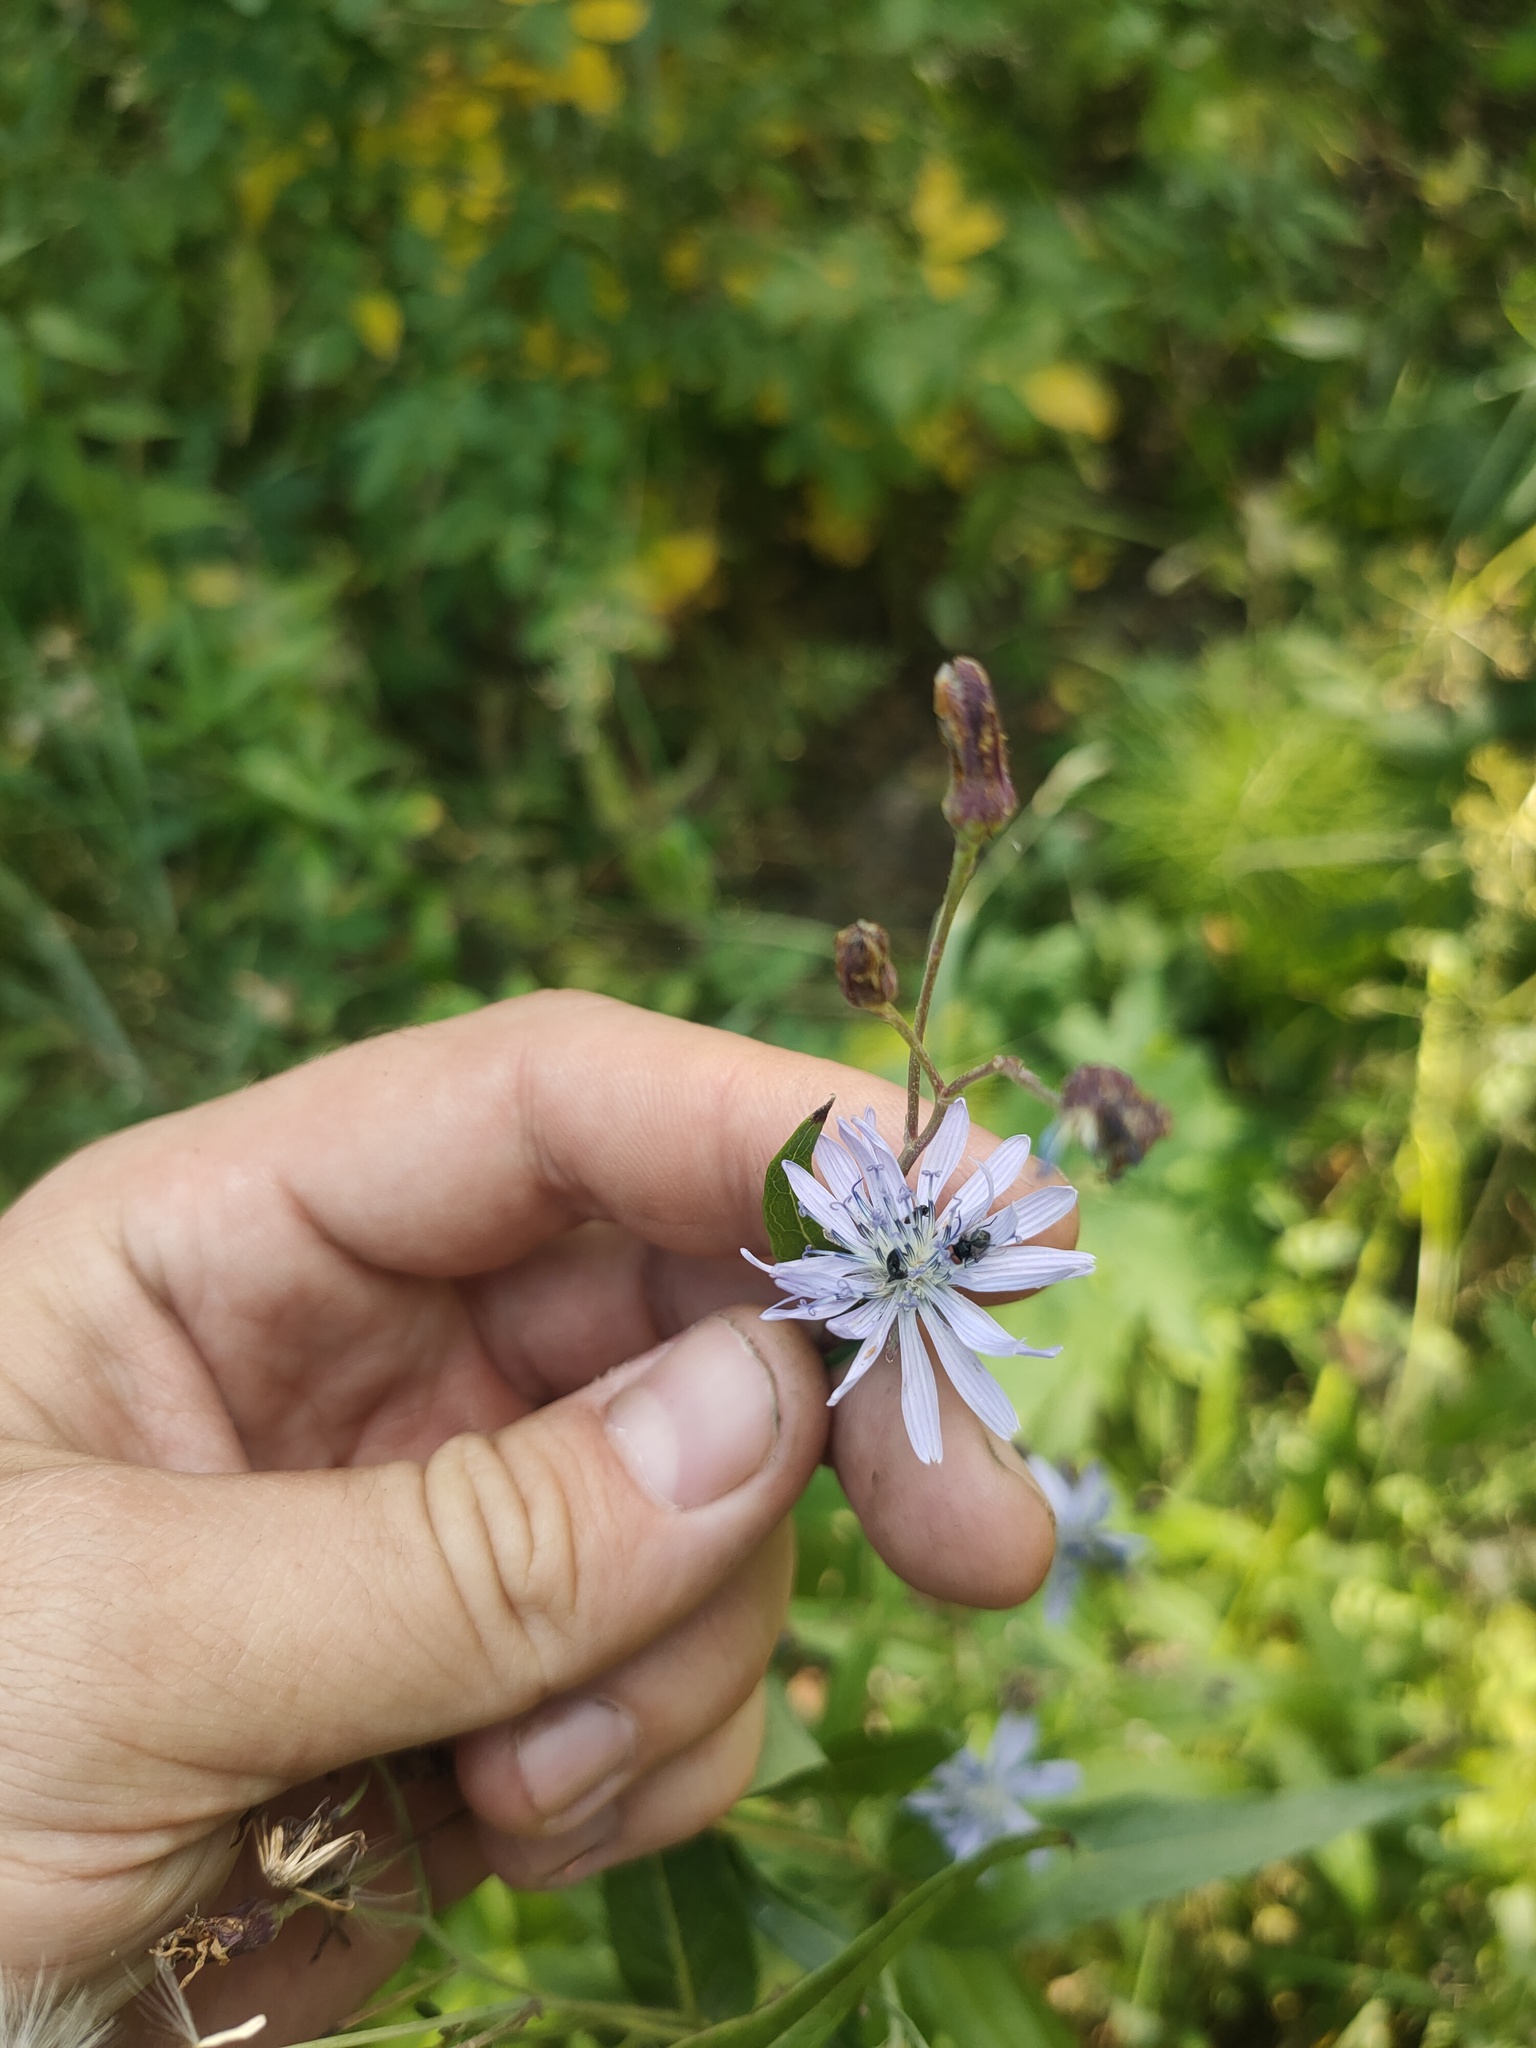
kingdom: Plantae
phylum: Tracheophyta
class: Magnoliopsida
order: Asterales
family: Asteraceae
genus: Lactuca
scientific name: Lactuca sibirica
